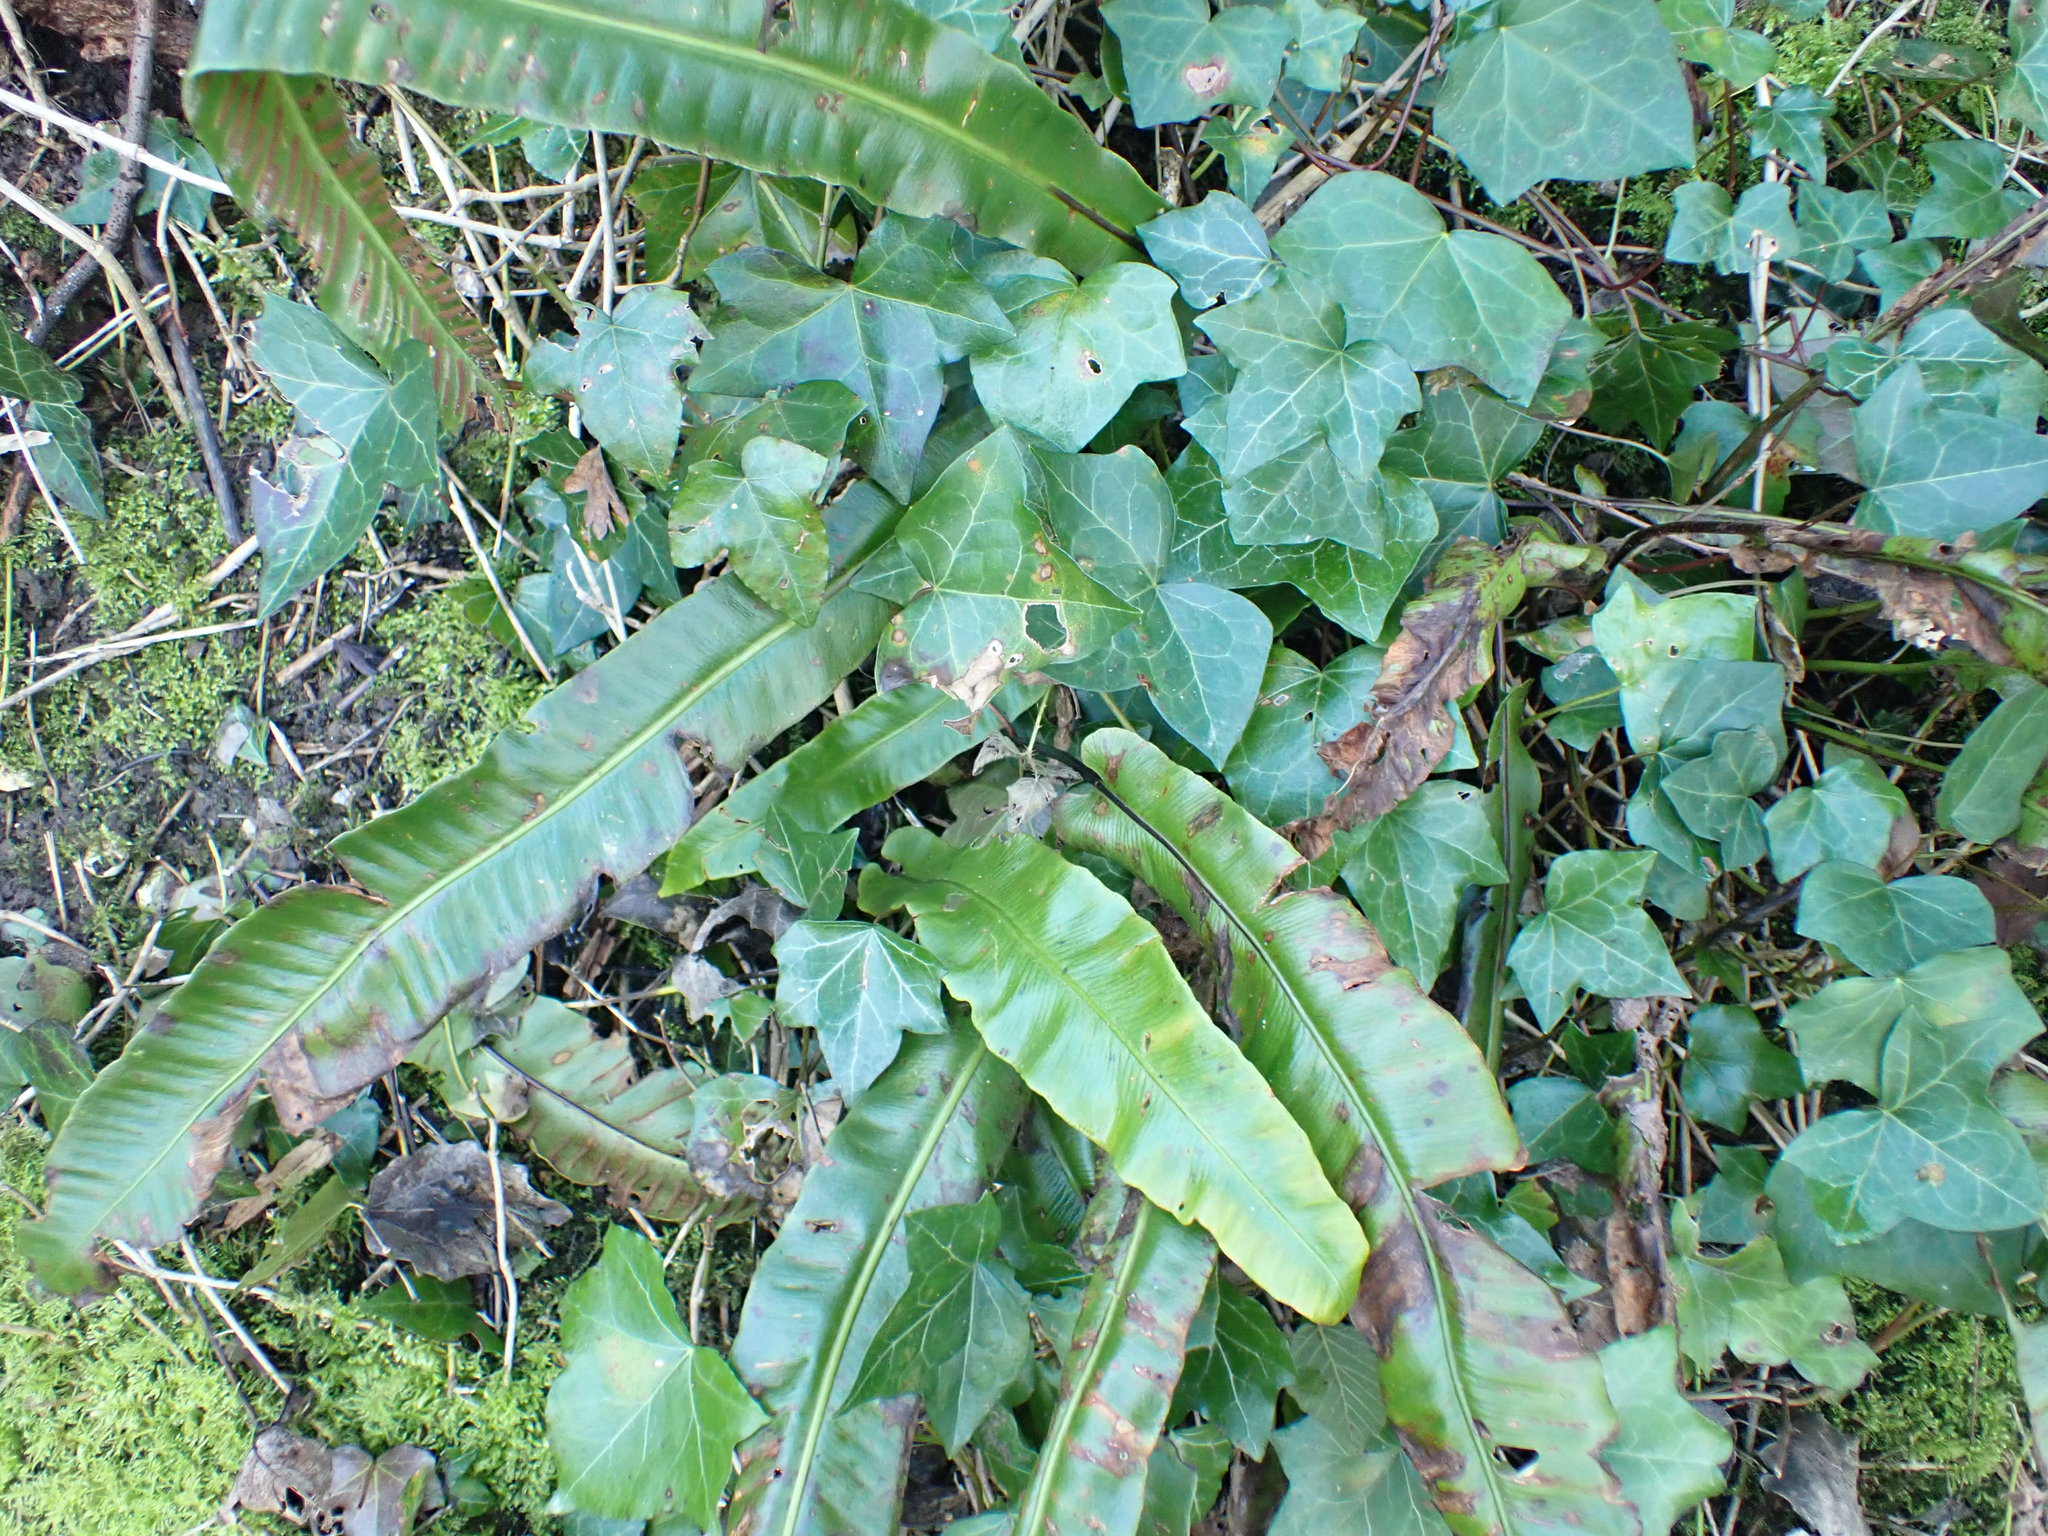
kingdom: Plantae
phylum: Tracheophyta
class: Polypodiopsida
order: Polypodiales
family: Aspleniaceae
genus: Asplenium
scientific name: Asplenium scolopendrium
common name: Hart's-tongue fern
